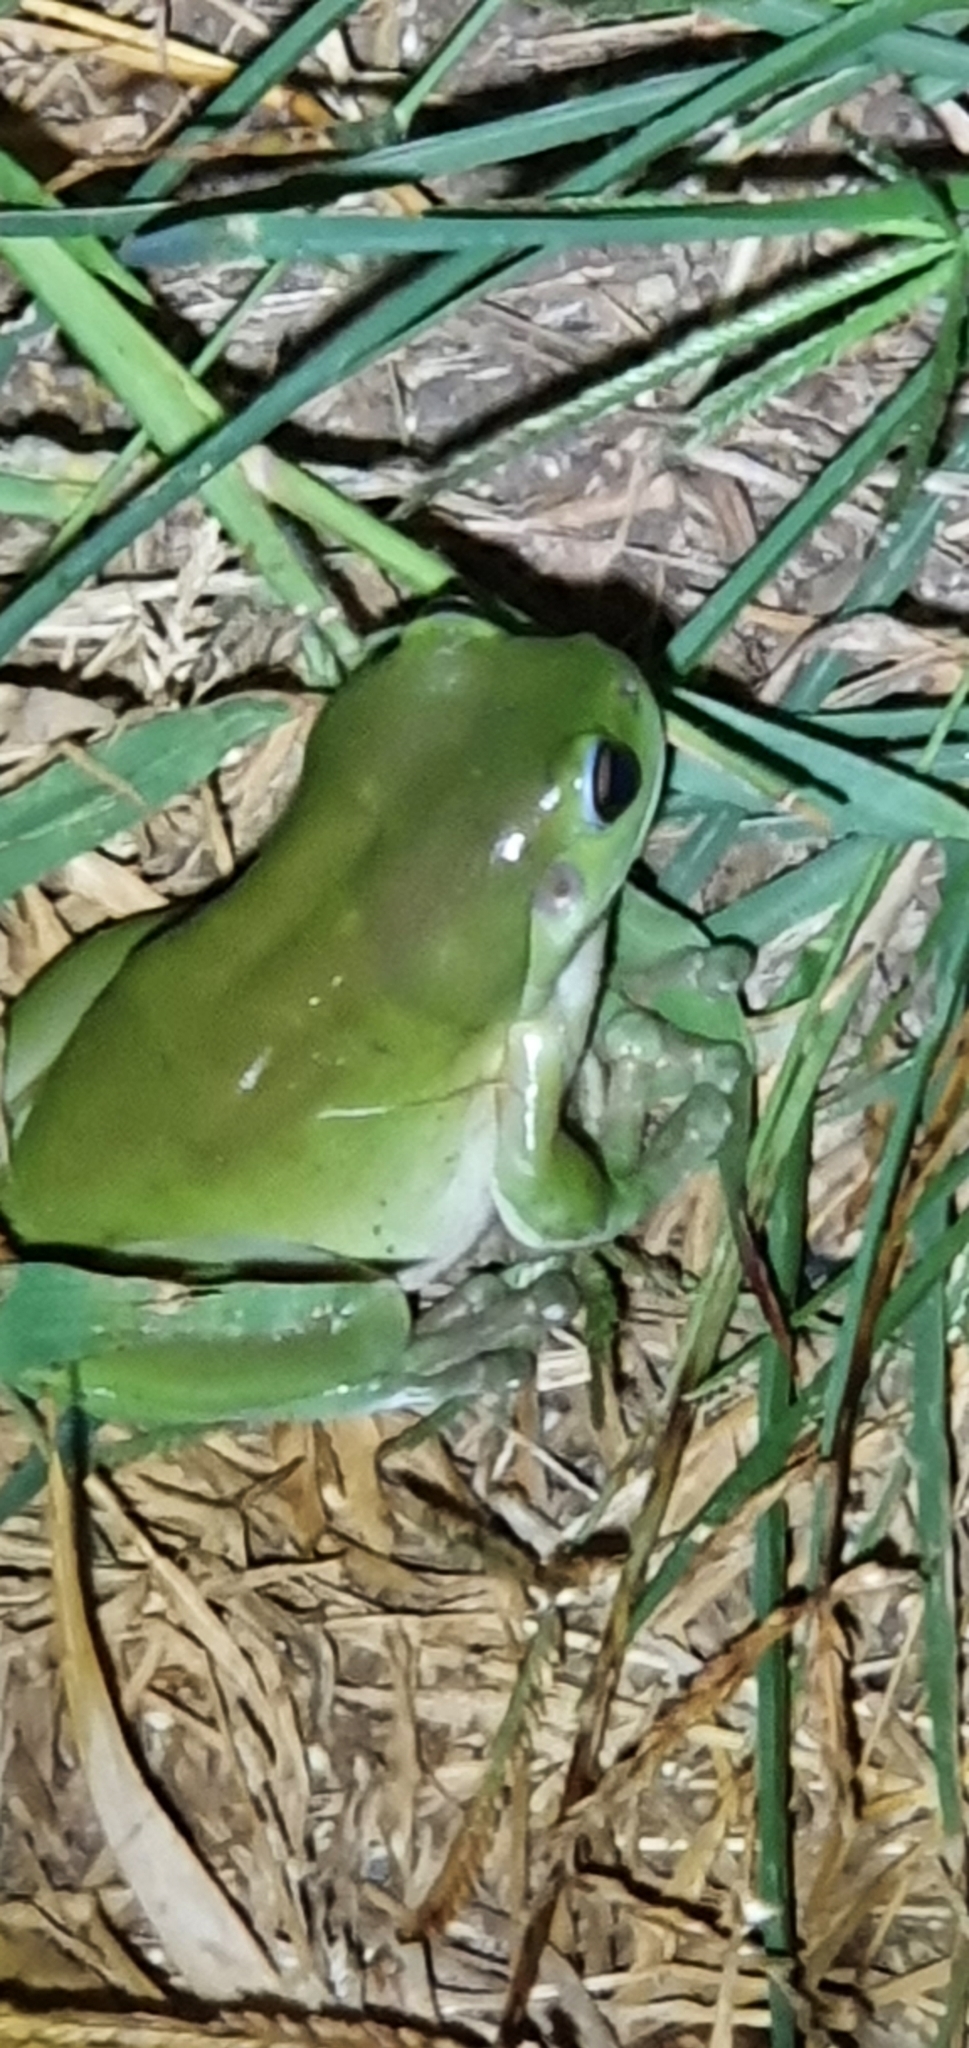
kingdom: Animalia
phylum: Chordata
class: Amphibia
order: Anura
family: Pelodryadidae
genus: Ranoidea
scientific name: Ranoidea caerulea
